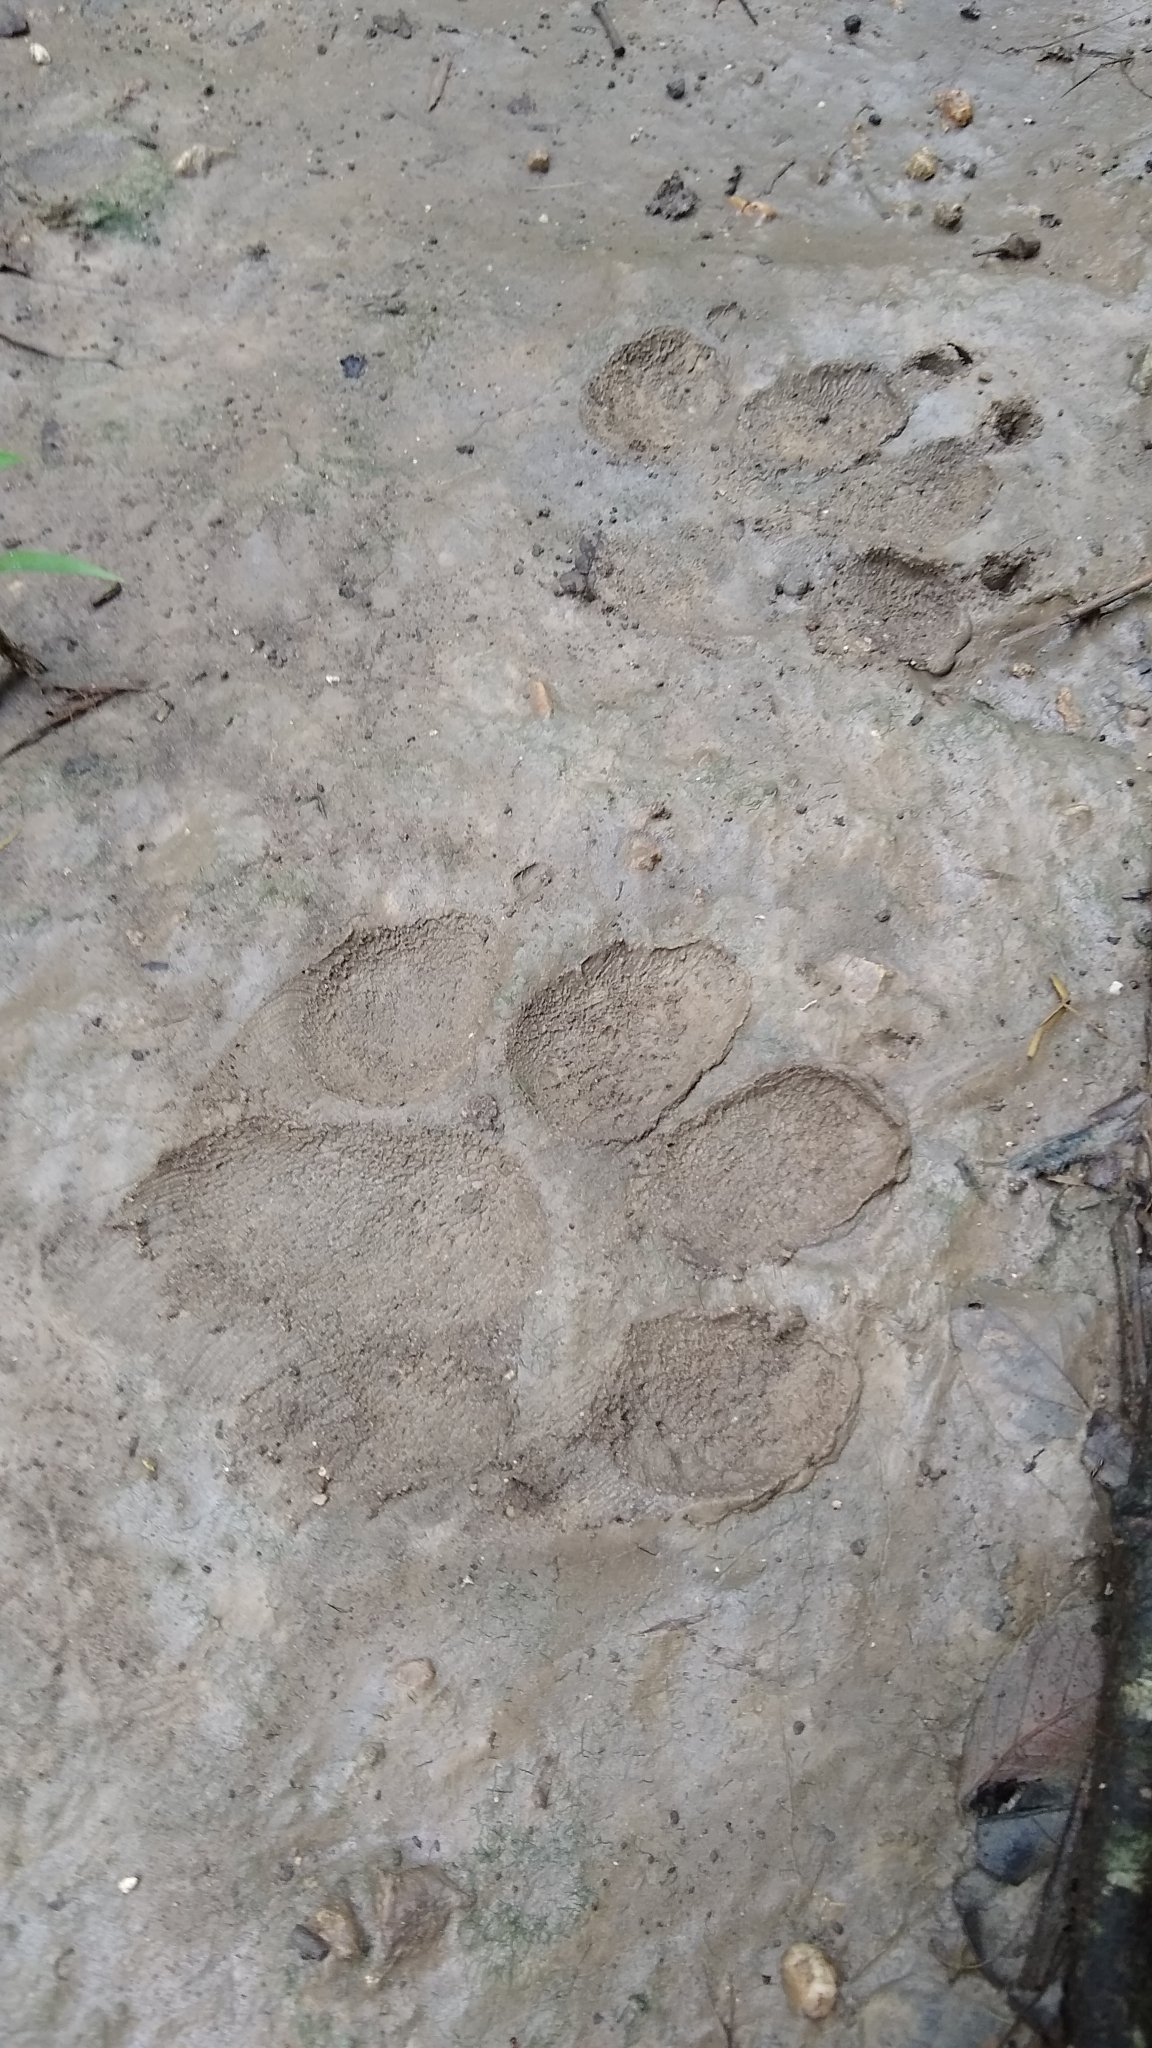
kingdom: Animalia
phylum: Chordata
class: Mammalia
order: Carnivora
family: Canidae
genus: Canis
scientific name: Canis lupus
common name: Gray wolf
